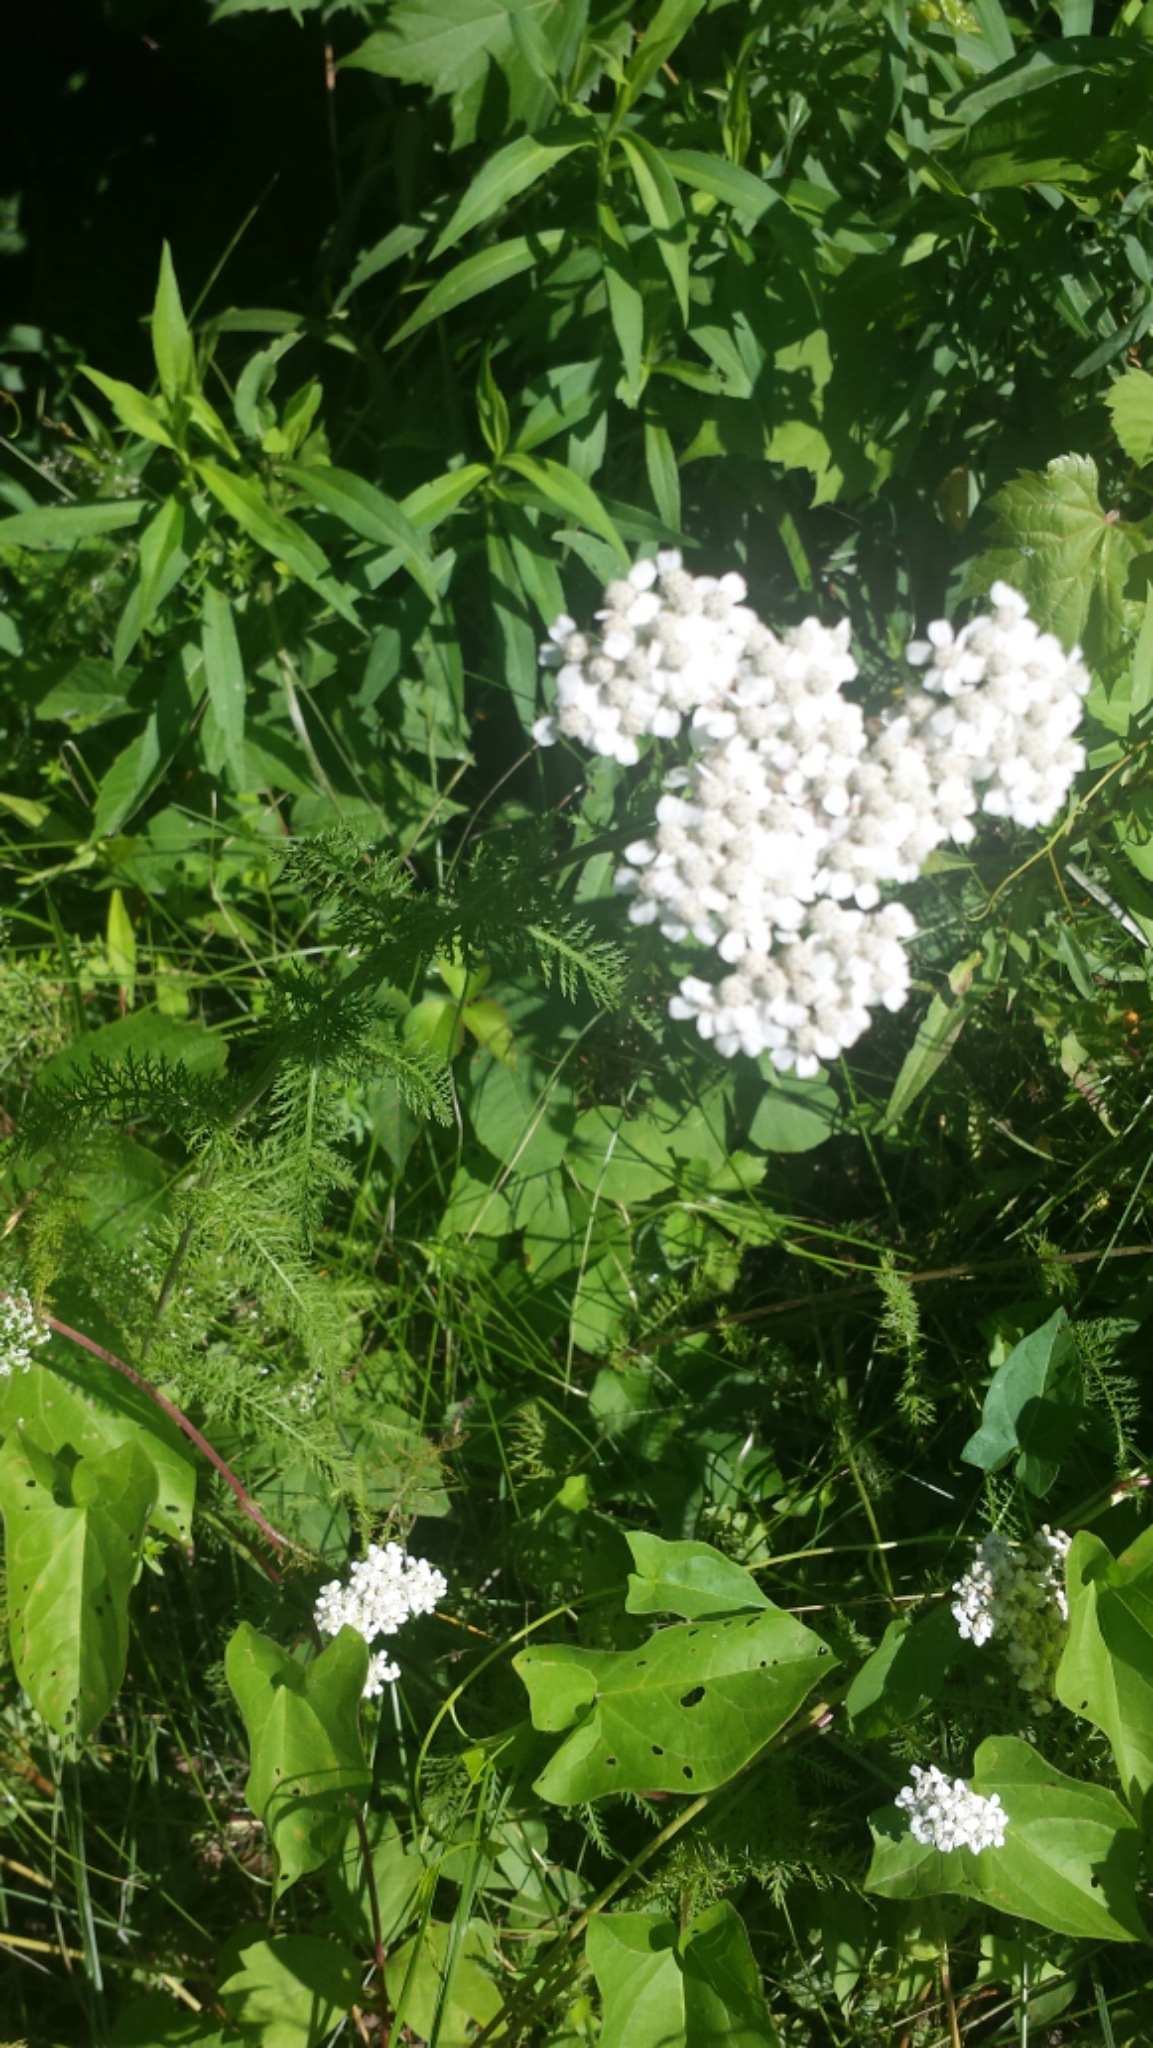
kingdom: Plantae
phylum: Tracheophyta
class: Magnoliopsida
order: Asterales
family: Asteraceae
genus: Achillea
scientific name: Achillea millefolium
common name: Yarrow
